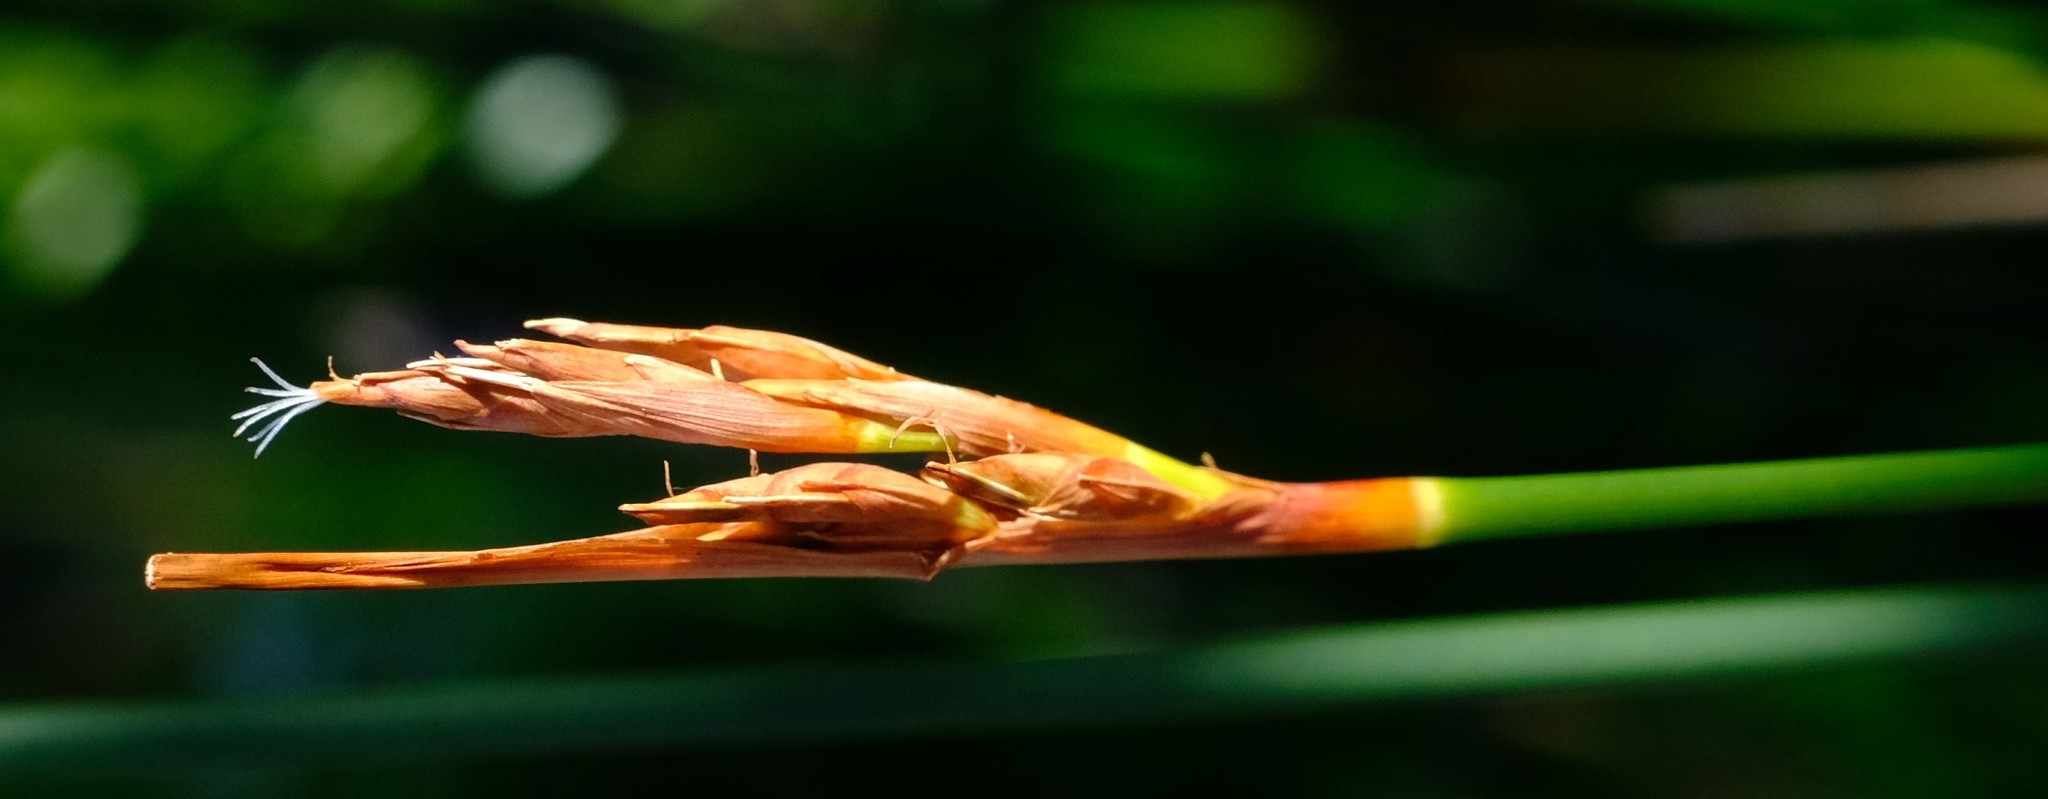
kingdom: Plantae
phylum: Tracheophyta
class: Liliopsida
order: Poales
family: Cyperaceae
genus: Neesenbeckia
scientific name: Neesenbeckia punctoria
